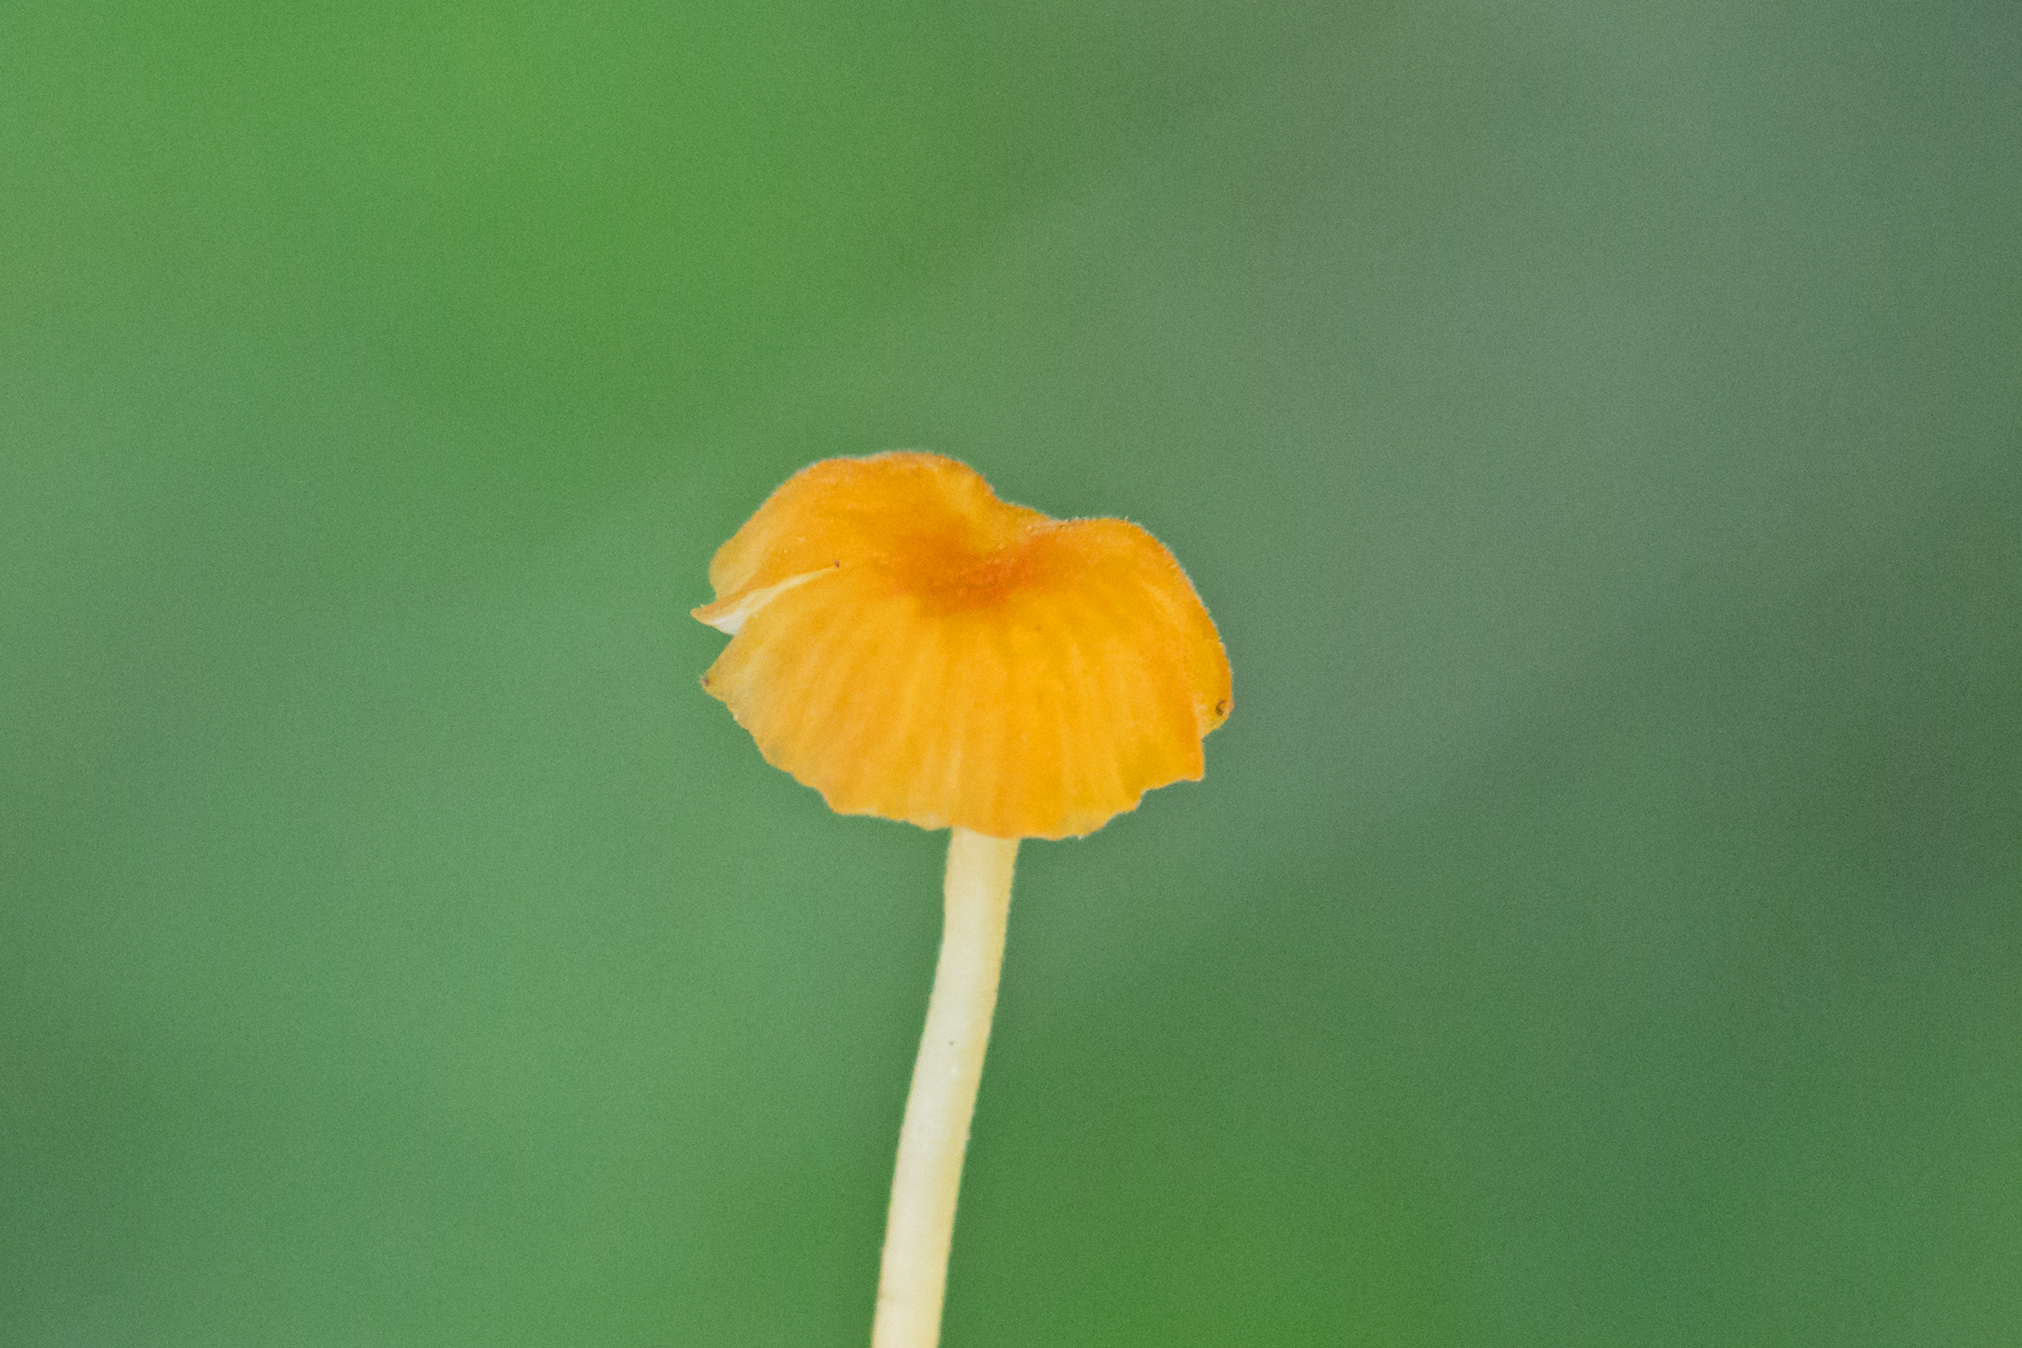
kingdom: Fungi
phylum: Basidiomycota
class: Agaricomycetes
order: Hymenochaetales
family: Rickenellaceae
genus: Rickenella
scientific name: Rickenella fibula
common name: Orange mosscap
